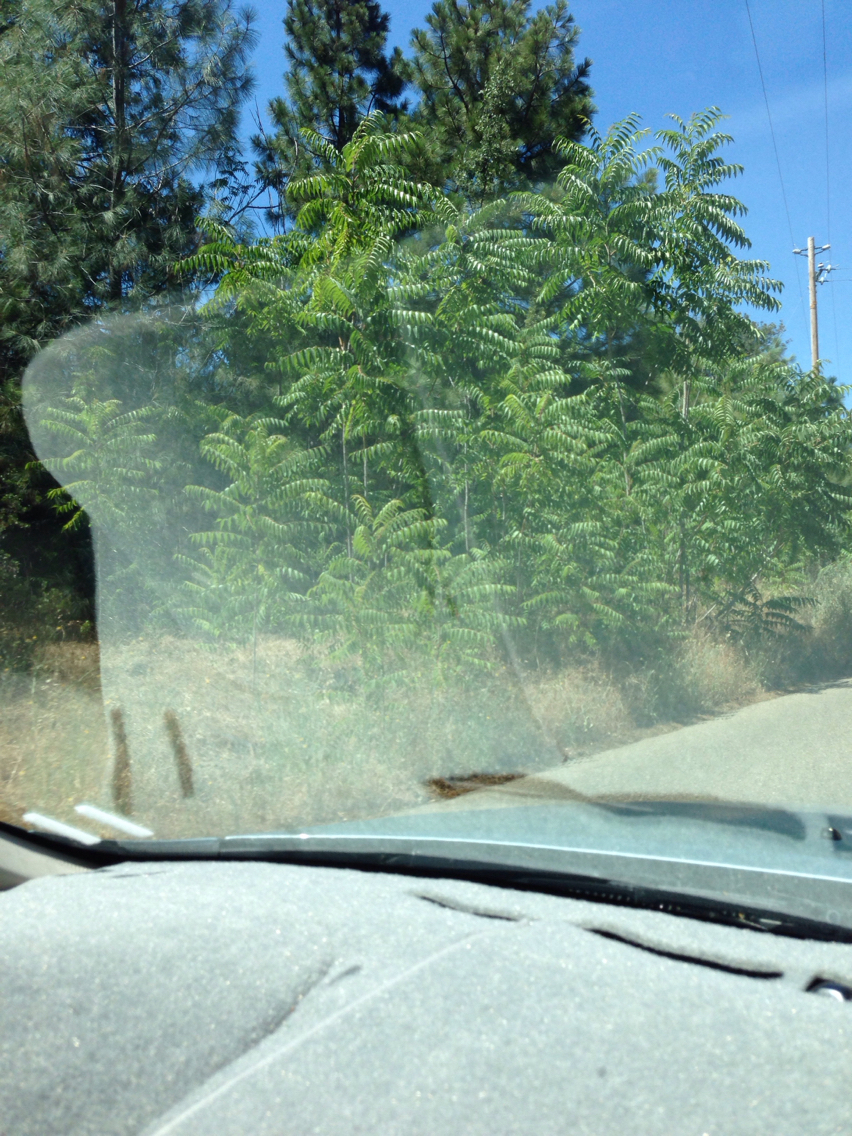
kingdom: Plantae
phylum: Tracheophyta
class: Magnoliopsida
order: Sapindales
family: Simaroubaceae
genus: Ailanthus
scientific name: Ailanthus altissima
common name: Tree-of-heaven
